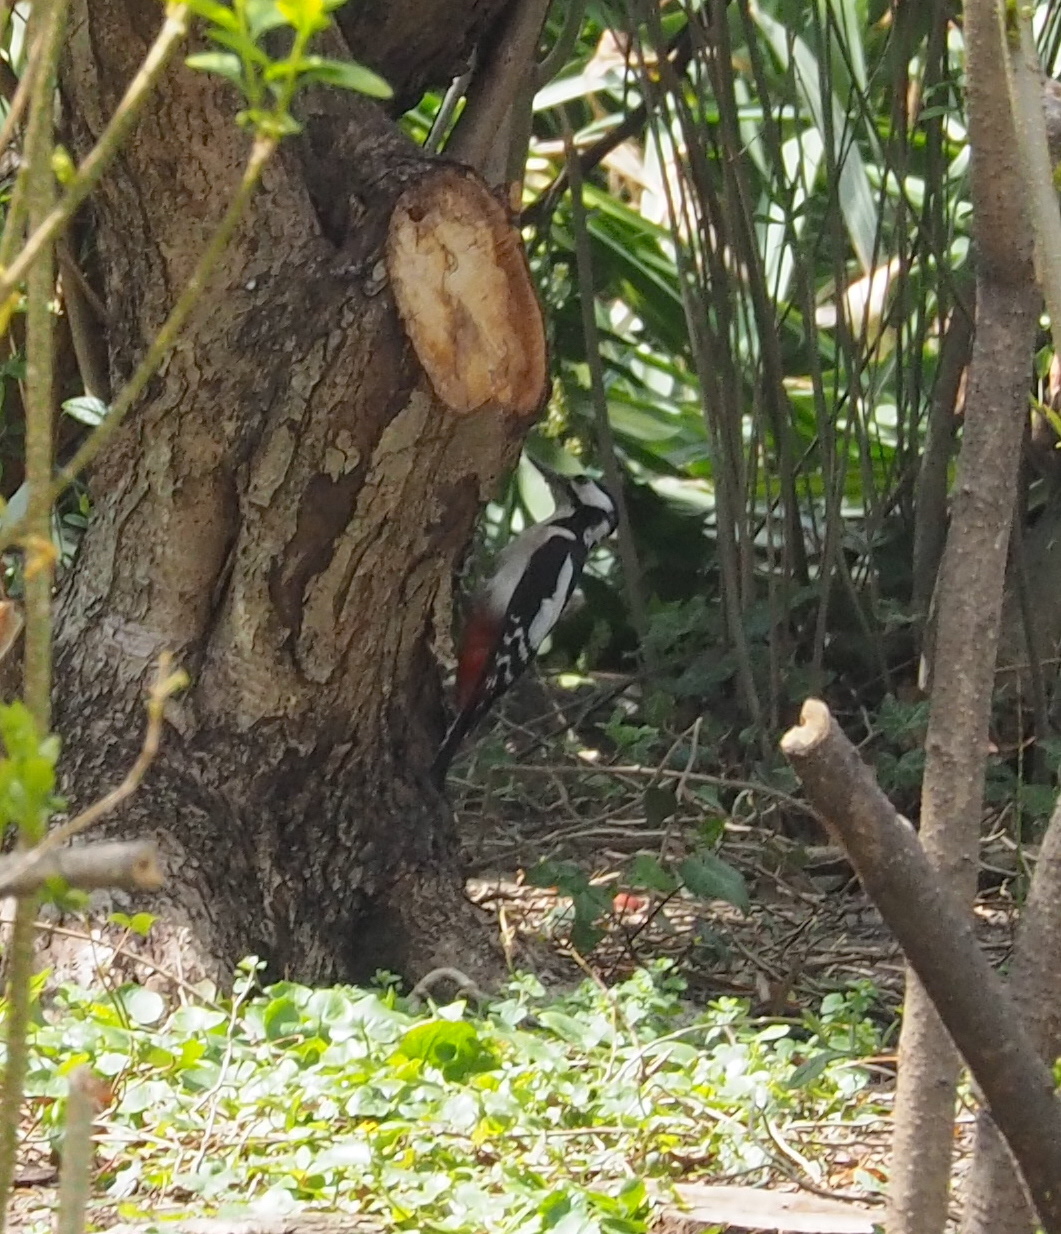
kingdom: Animalia
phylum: Chordata
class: Aves
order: Piciformes
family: Picidae
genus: Dendrocopos
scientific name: Dendrocopos major
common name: Great spotted woodpecker
